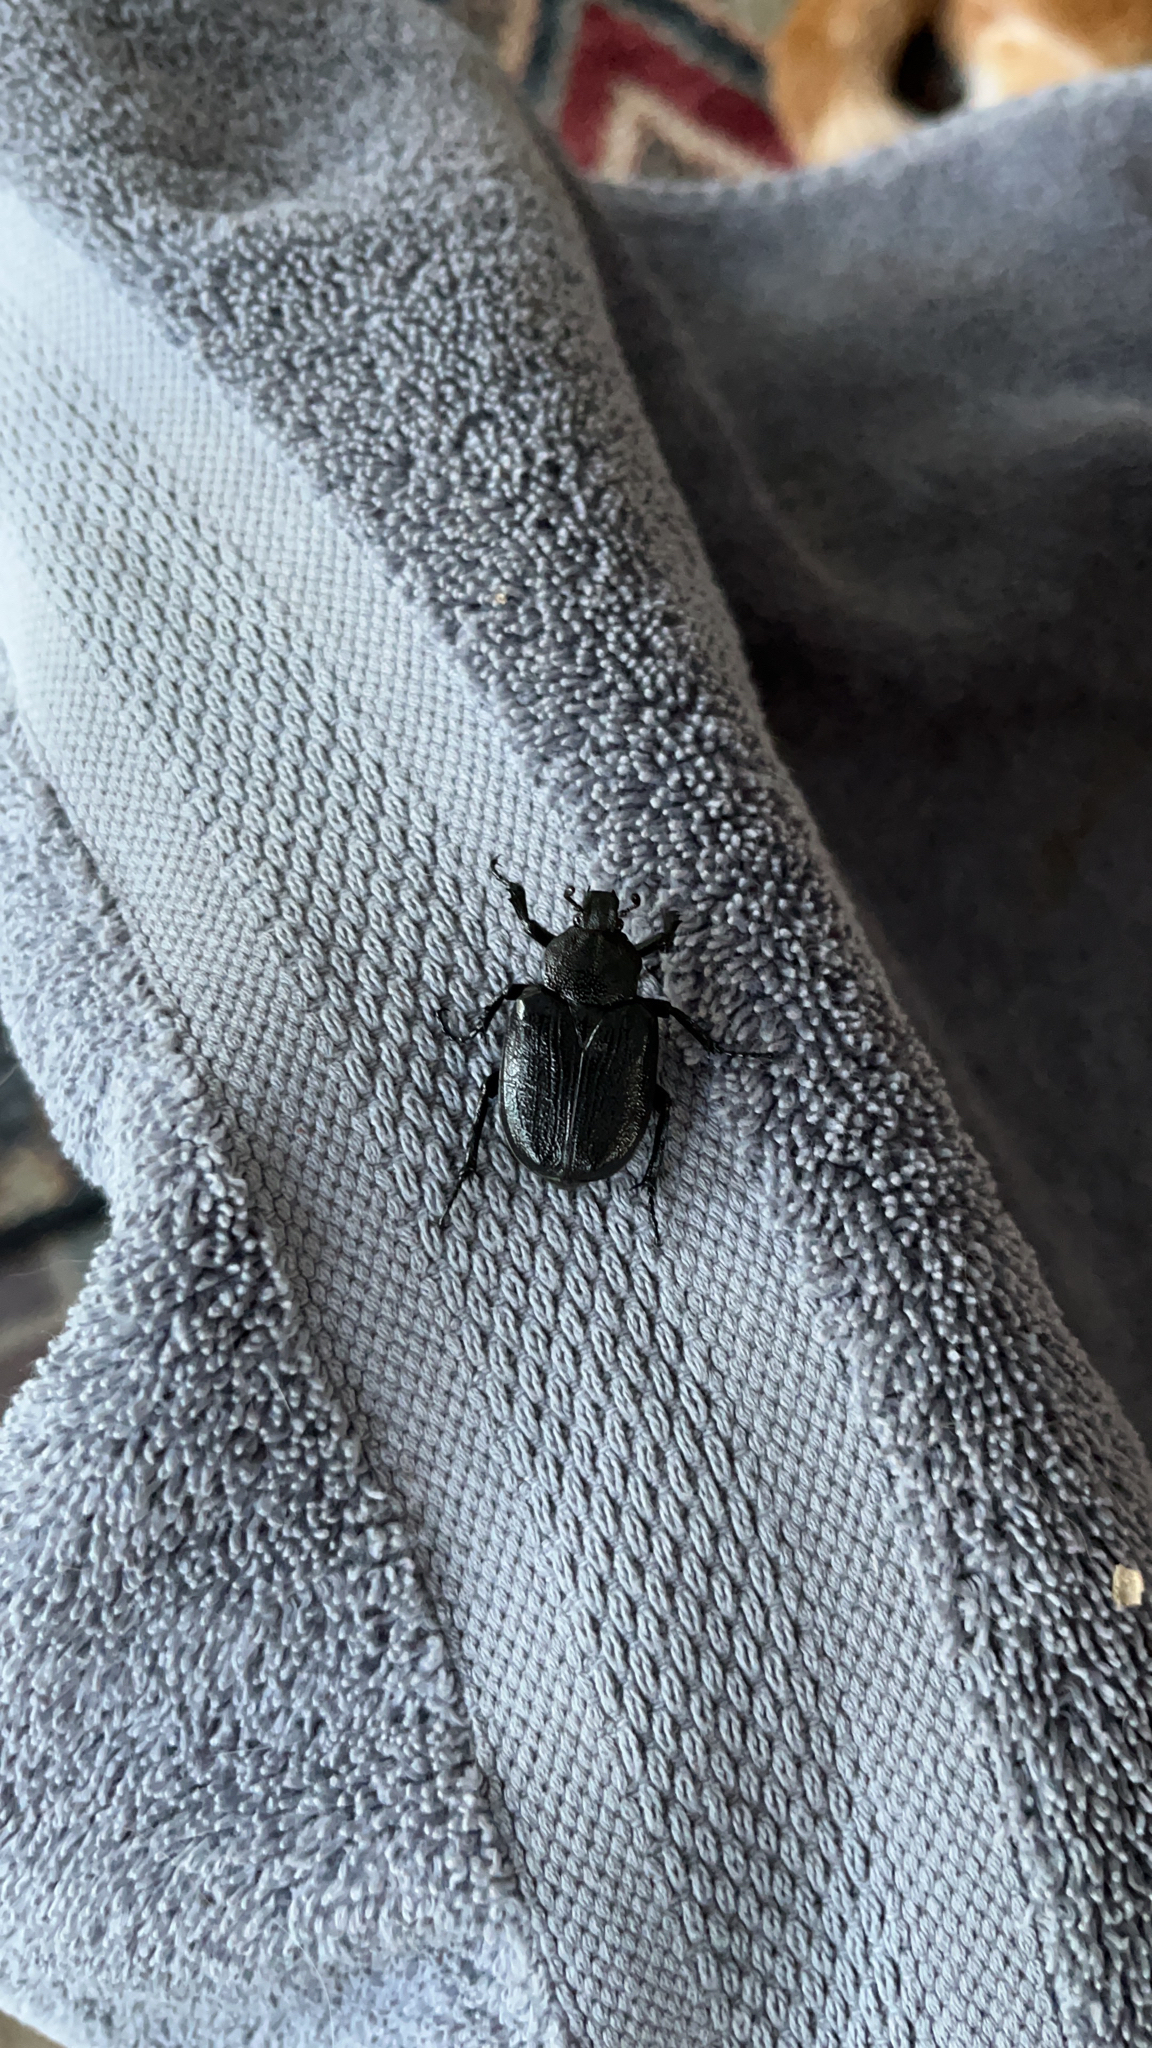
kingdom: Animalia
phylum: Arthropoda
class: Insecta
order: Coleoptera
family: Scarabaeidae
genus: Osmoderma
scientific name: Osmoderma scabra
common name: Rough hermit beetle
